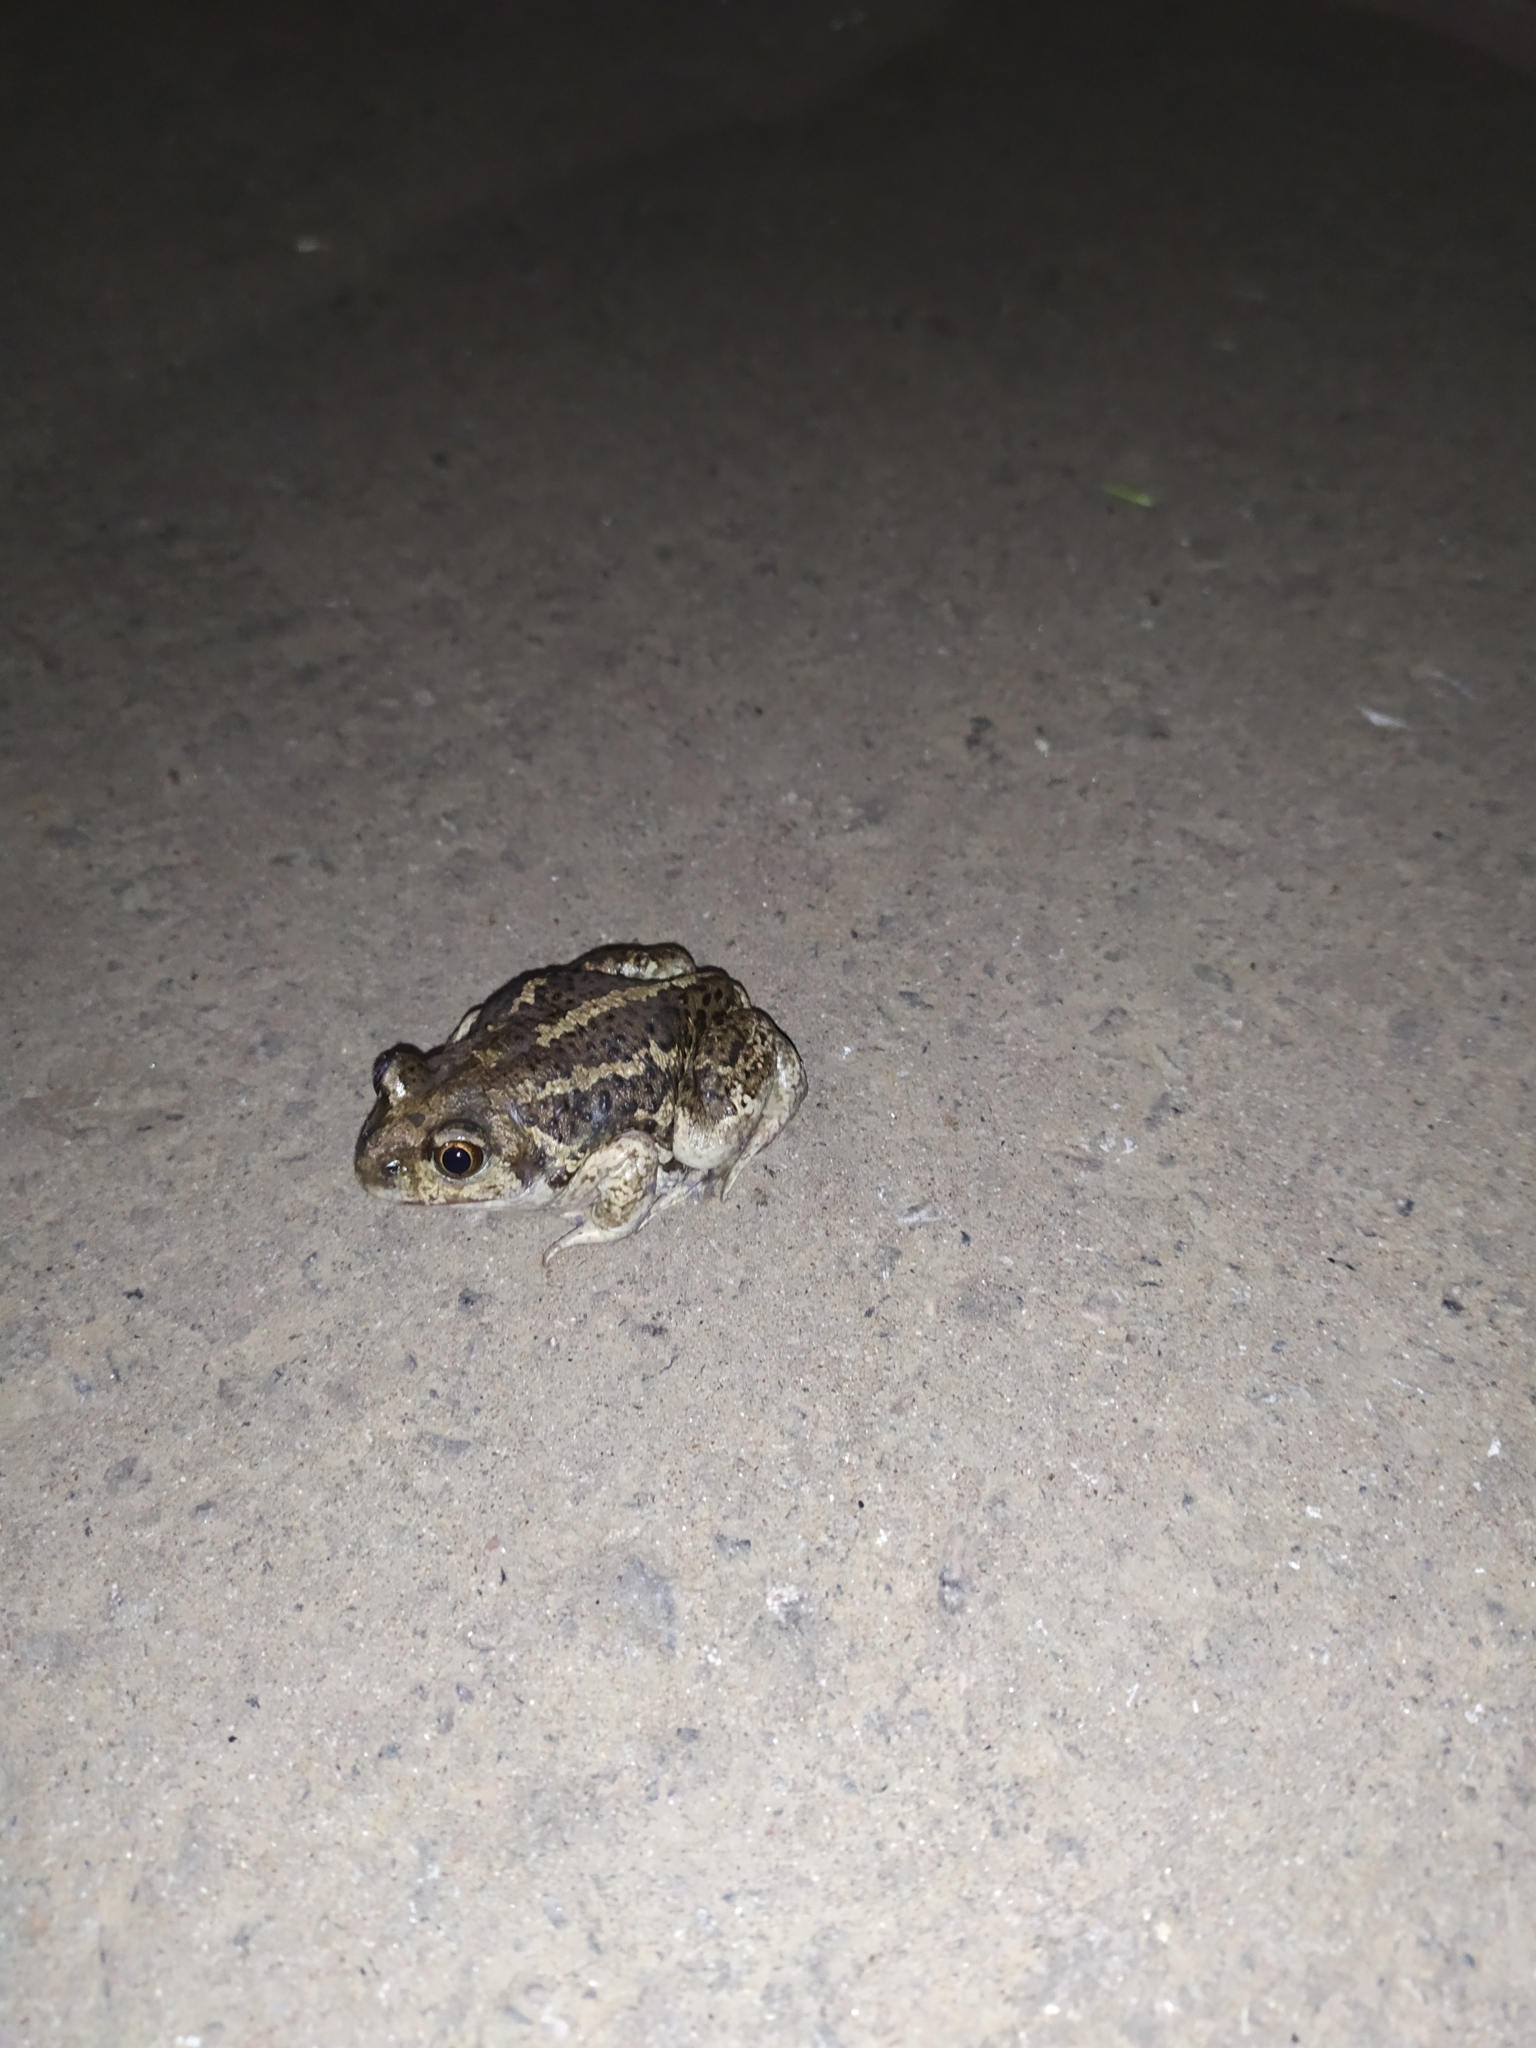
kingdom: Animalia
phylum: Chordata
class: Amphibia
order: Anura
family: Pelobatidae
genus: Pelobates
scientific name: Pelobates fuscus
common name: Common eurasian spadefoot toad
